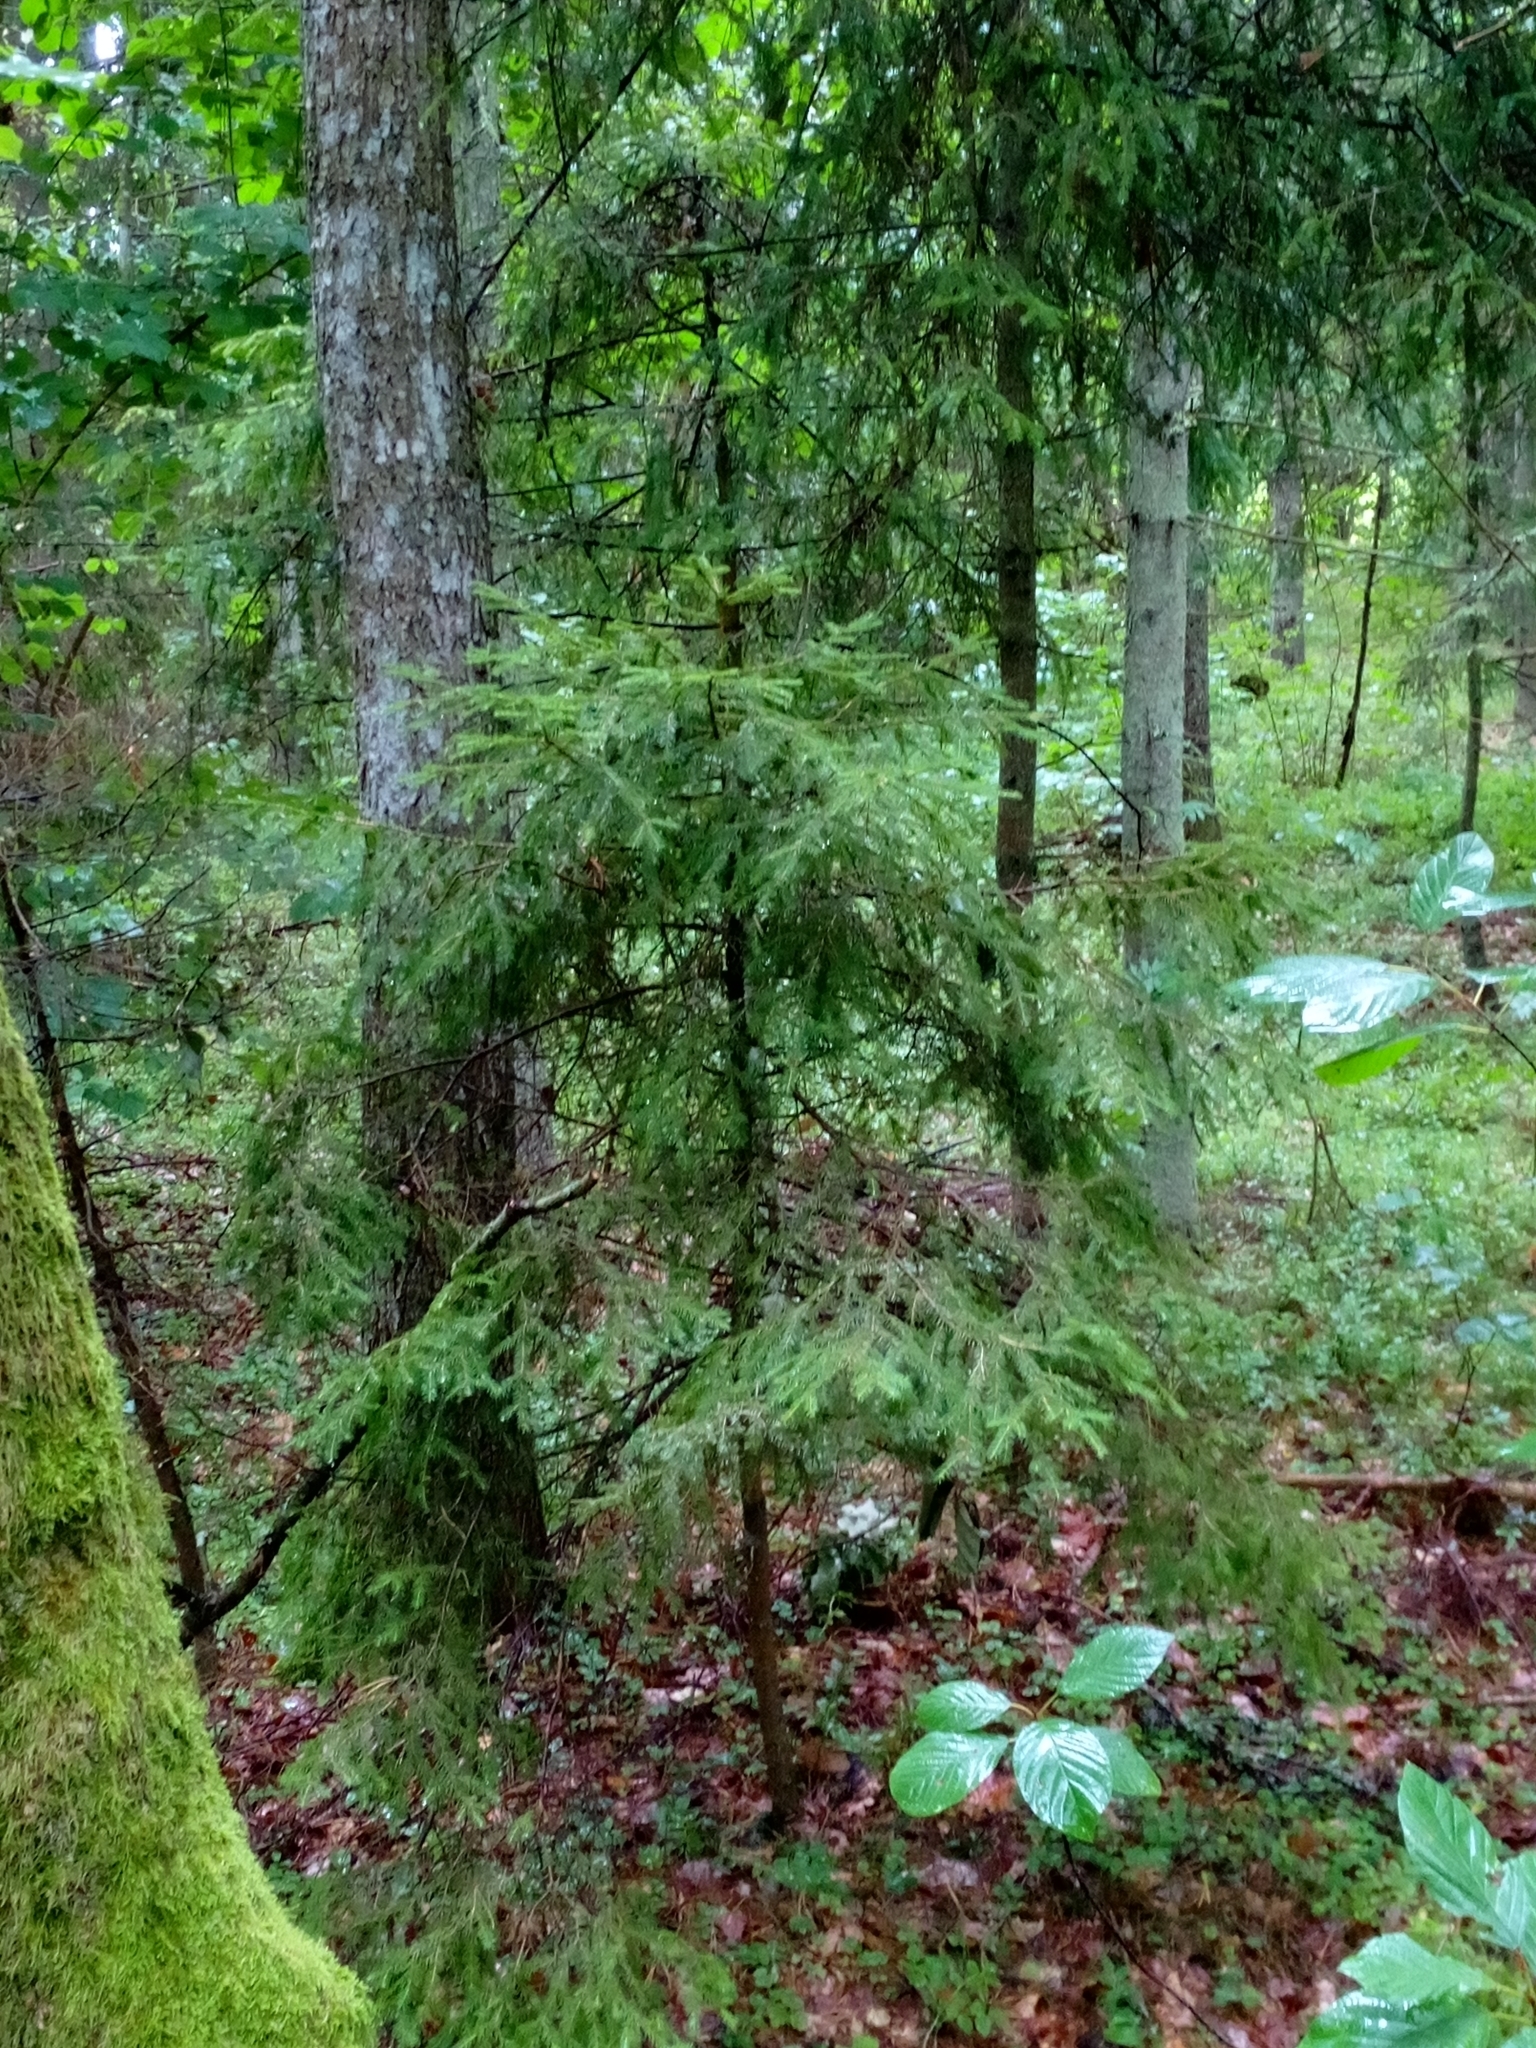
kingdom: Plantae
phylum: Tracheophyta
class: Pinopsida
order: Pinales
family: Pinaceae
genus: Picea
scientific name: Picea abies
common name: Norway spruce
